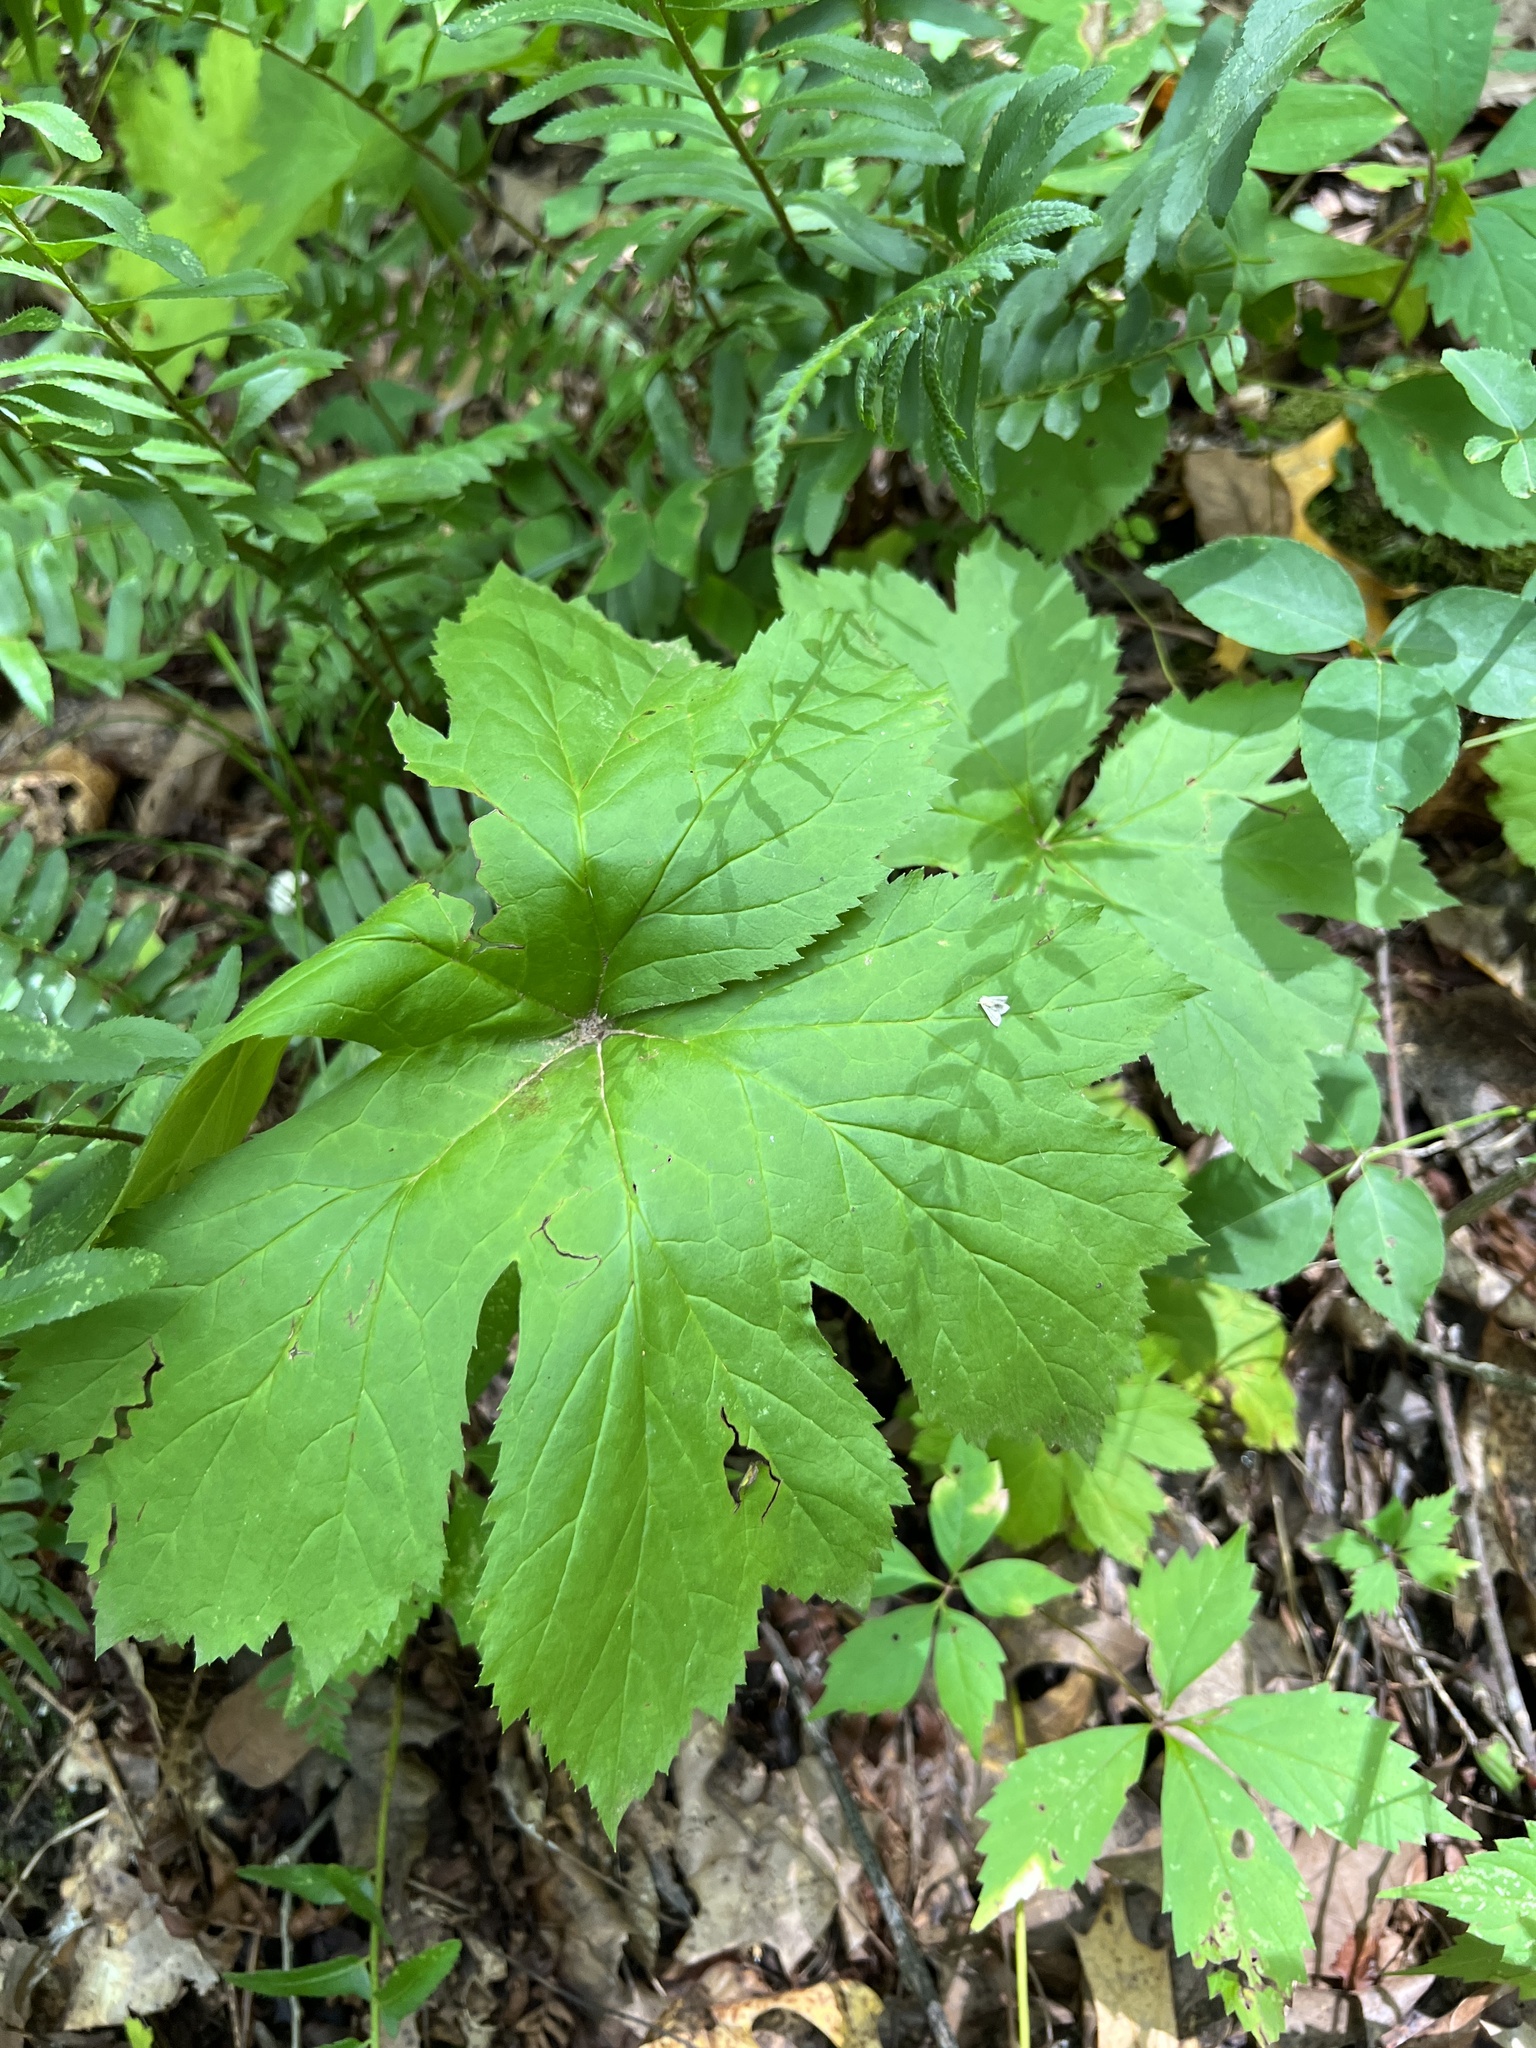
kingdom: Plantae
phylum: Tracheophyta
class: Magnoliopsida
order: Ranunculales
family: Ranunculaceae
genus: Hydrastis
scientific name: Hydrastis canadensis
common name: Goldenseal
